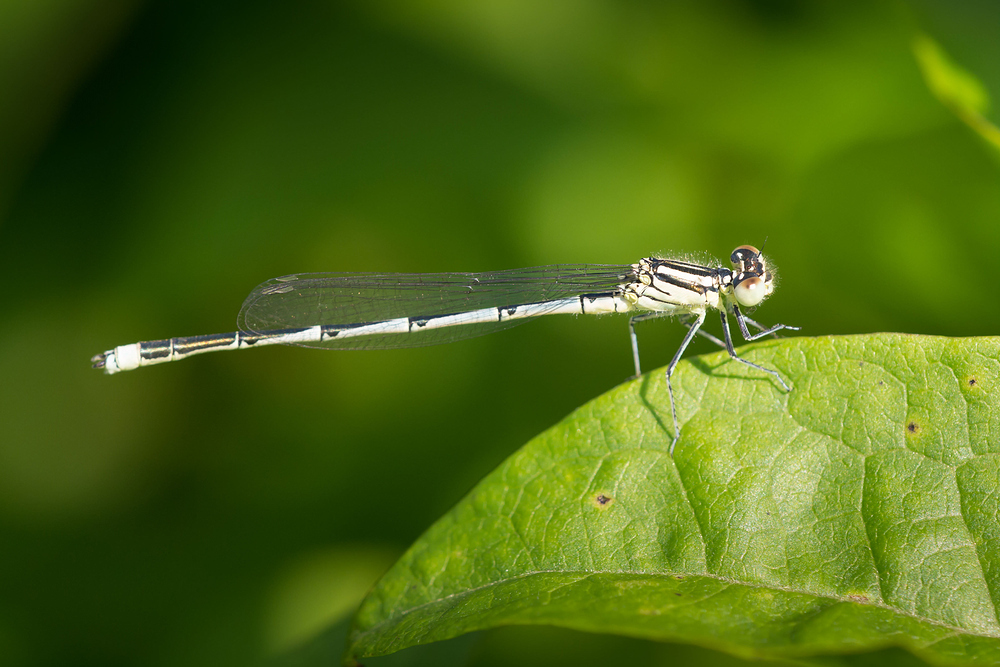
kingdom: Animalia
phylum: Arthropoda
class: Insecta
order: Odonata
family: Coenagrionidae
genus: Erythromma
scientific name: Erythromma lindenii
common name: Blue-eye
